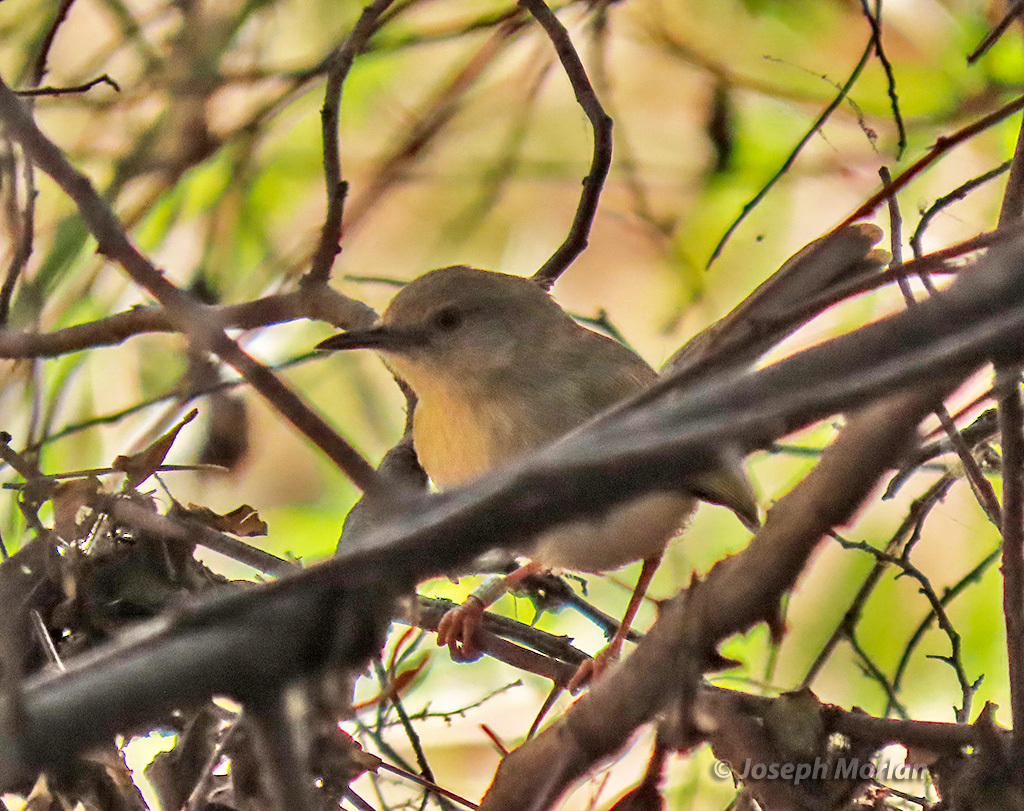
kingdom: Animalia
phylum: Chordata
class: Aves
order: Passeriformes
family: Cisticolidae
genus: Camaroptera
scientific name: Camaroptera brachyura
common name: Green-backed camaroptera
